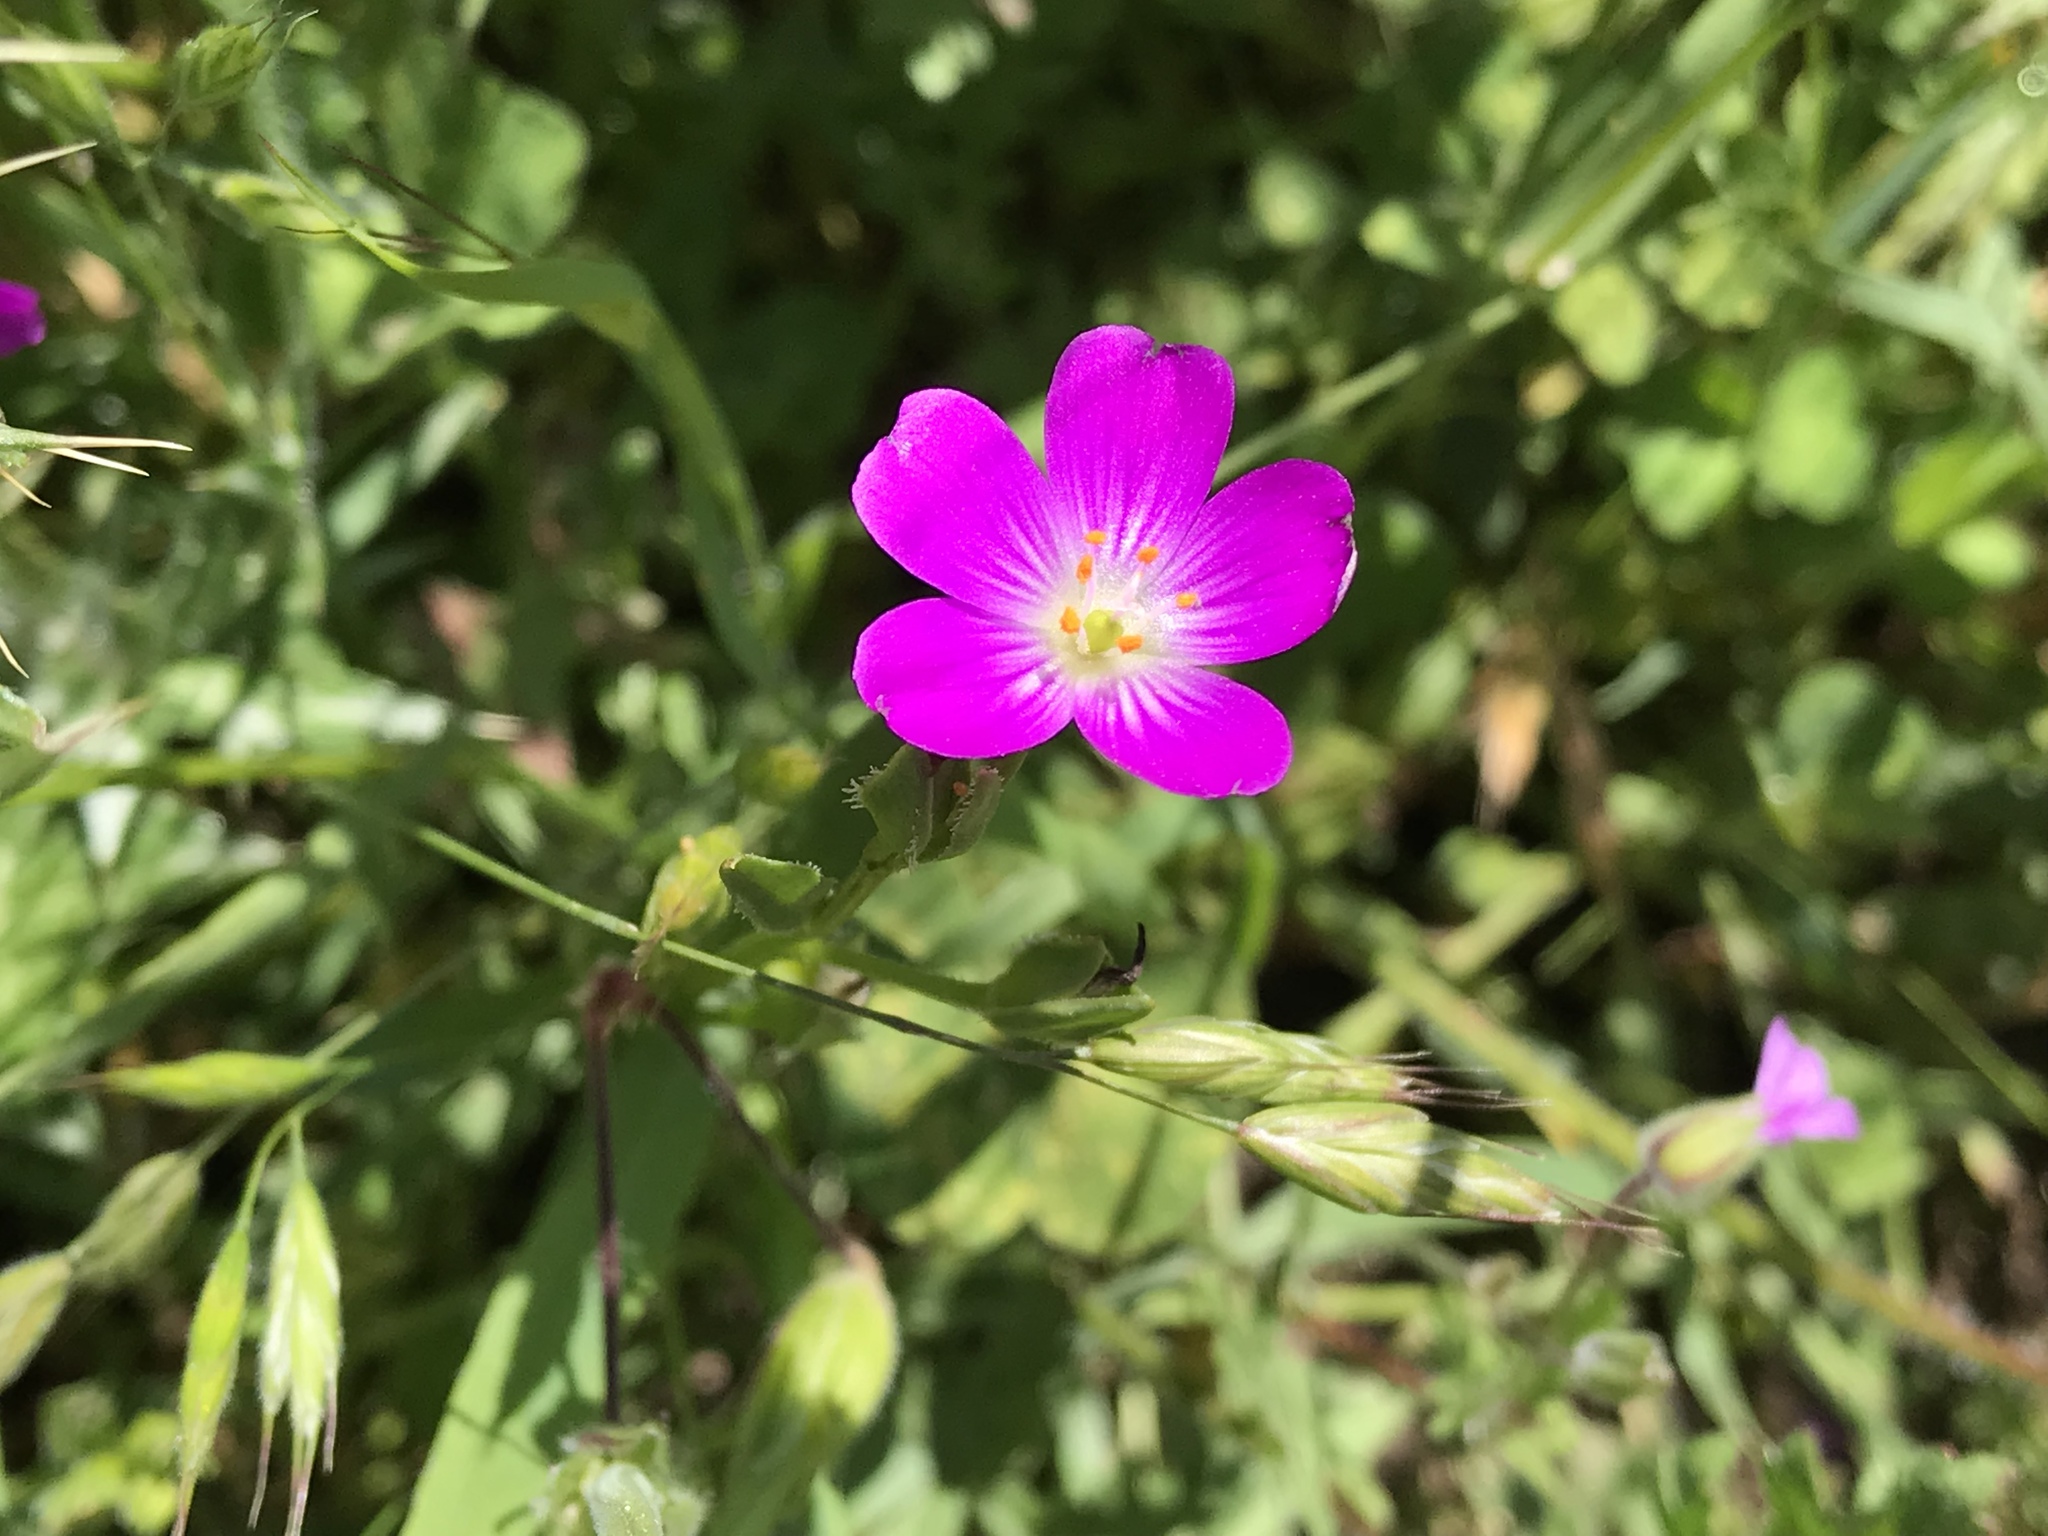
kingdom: Plantae
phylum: Tracheophyta
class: Magnoliopsida
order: Caryophyllales
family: Montiaceae
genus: Calandrinia
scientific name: Calandrinia menziesii
